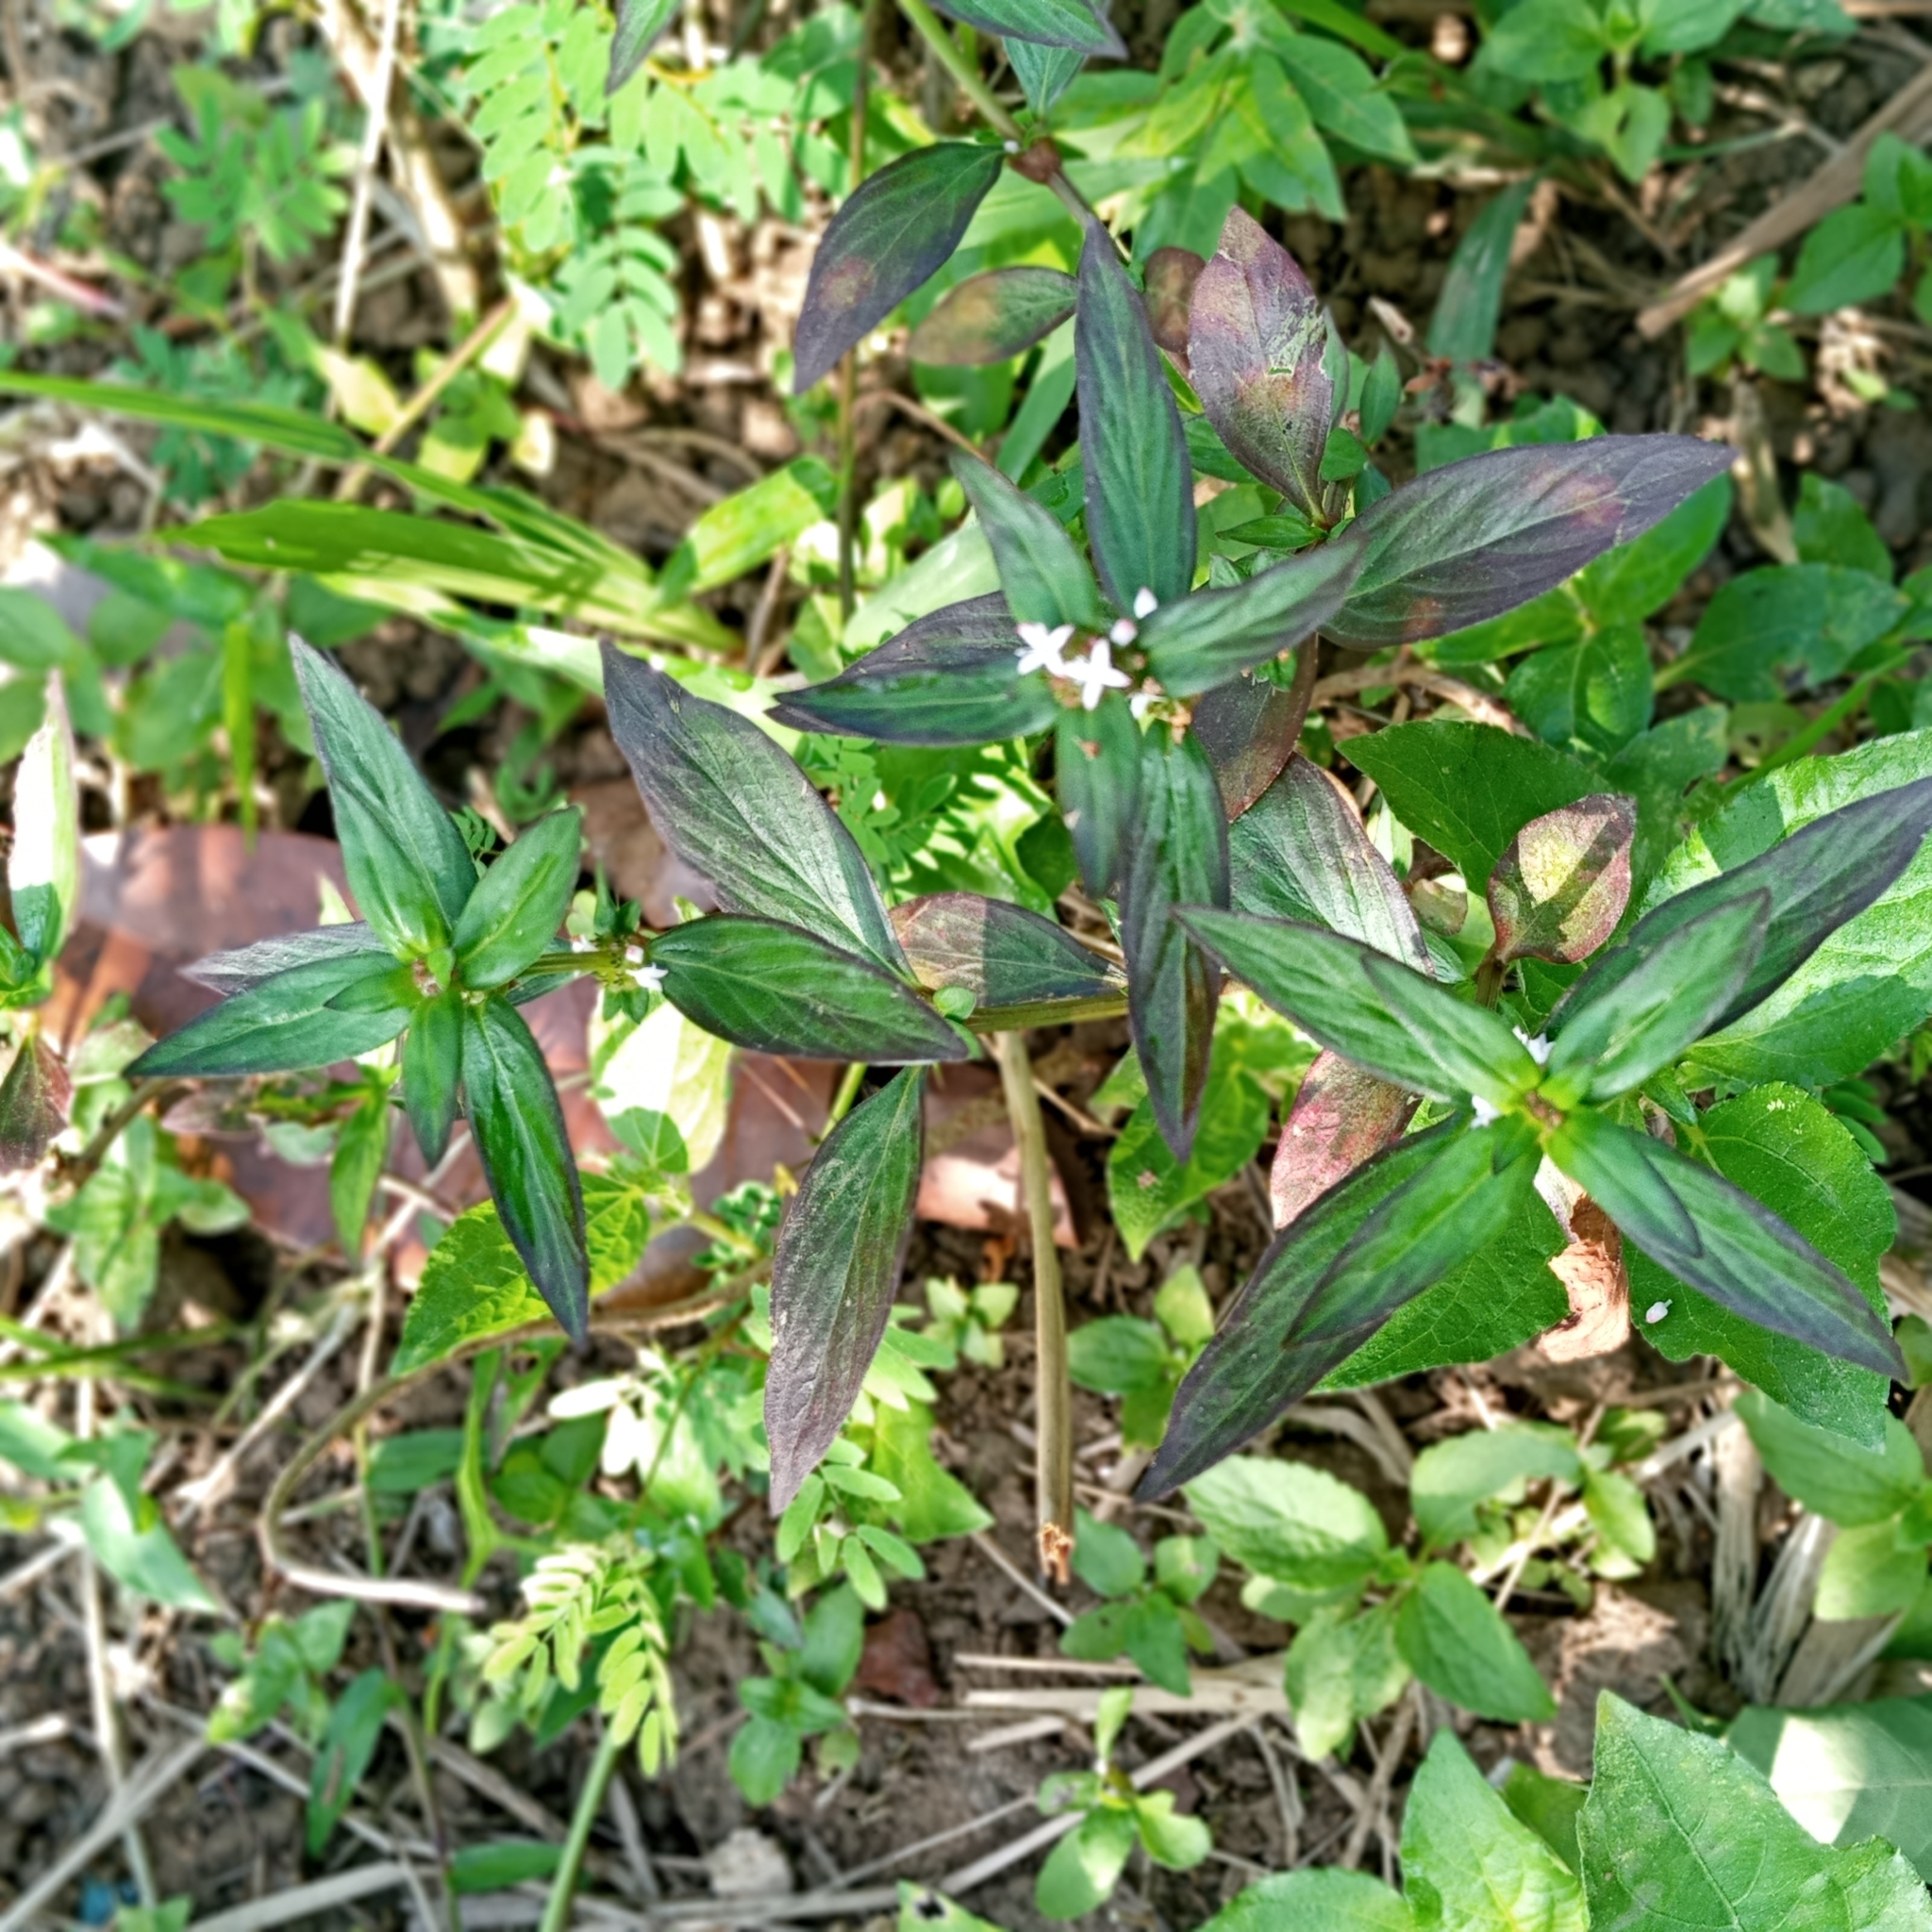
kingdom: Plantae
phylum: Tracheophyta
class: Magnoliopsida
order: Gentianales
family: Rubiaceae
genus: Spermacoce
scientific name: Spermacoce remota
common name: Woodland false buttonweed
